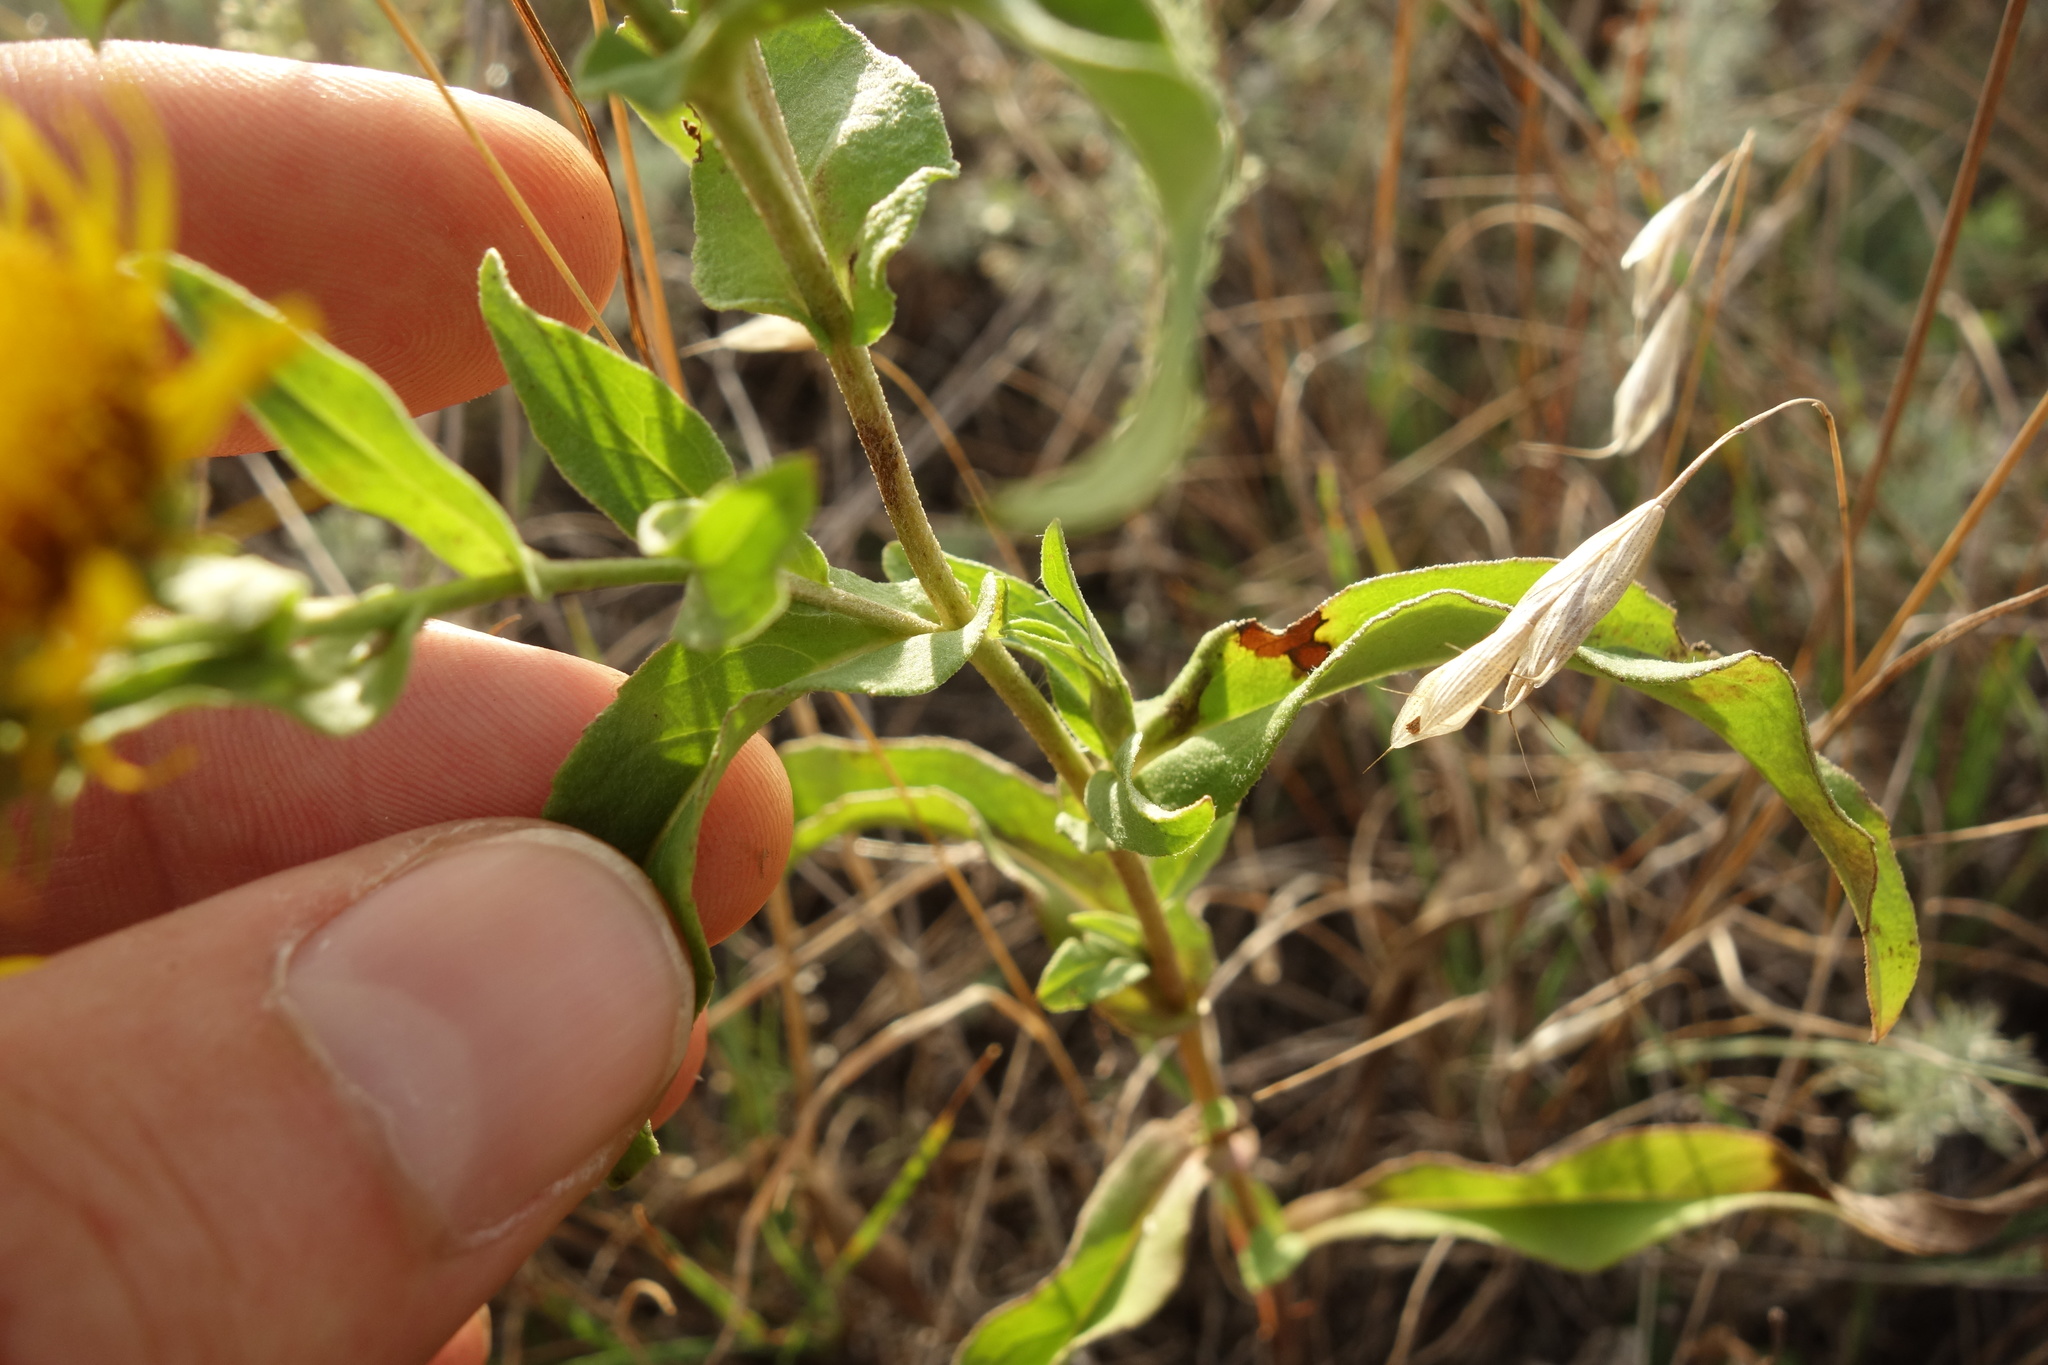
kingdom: Plantae
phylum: Tracheophyta
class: Magnoliopsida
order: Asterales
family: Asteraceae
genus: Pentanema
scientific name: Pentanema britannicum
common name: British elecampane
